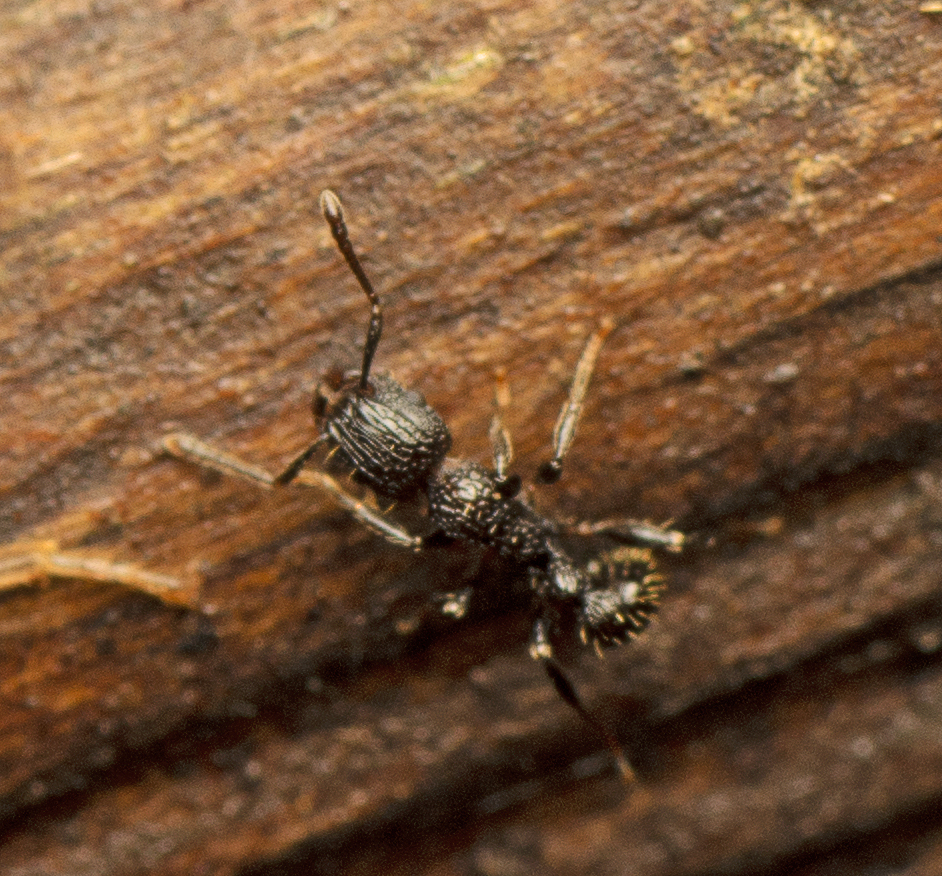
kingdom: Animalia
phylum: Arthropoda
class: Insecta
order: Hymenoptera
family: Formicidae
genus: Tetramorium
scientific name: Tetramorium pacificum
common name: Ant
